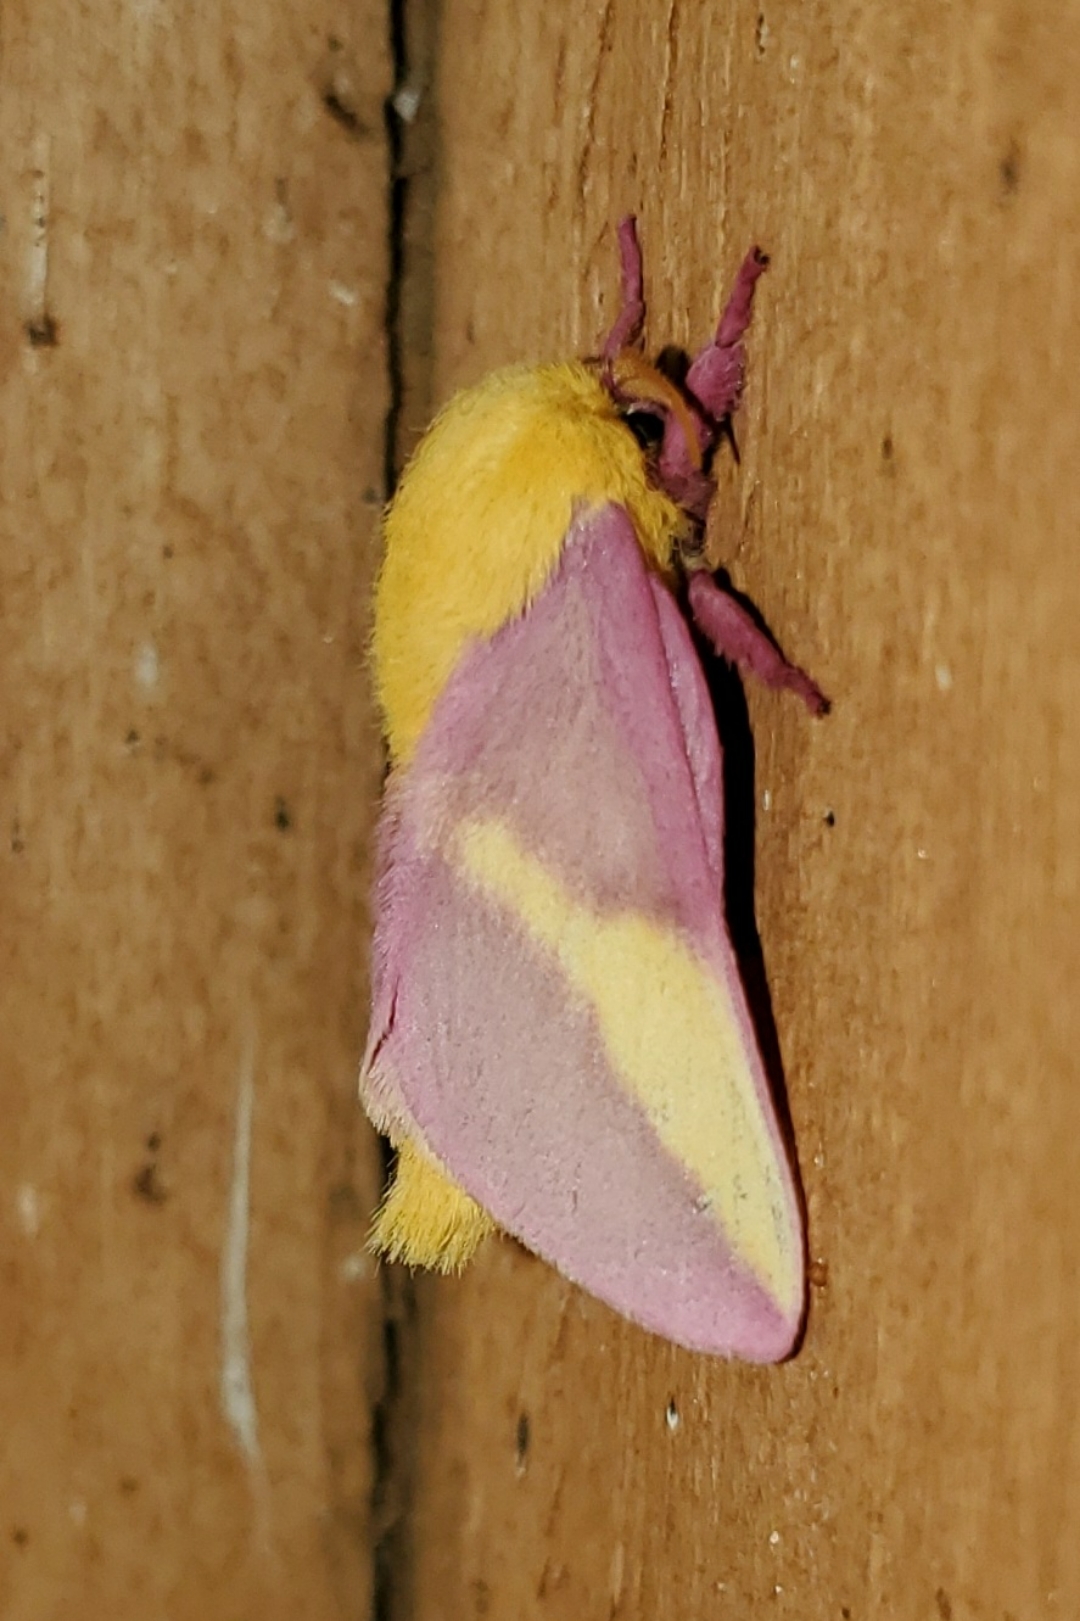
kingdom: Animalia
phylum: Arthropoda
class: Insecta
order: Lepidoptera
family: Saturniidae
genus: Dryocampa
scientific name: Dryocampa rubicunda
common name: Rosy maple moth
